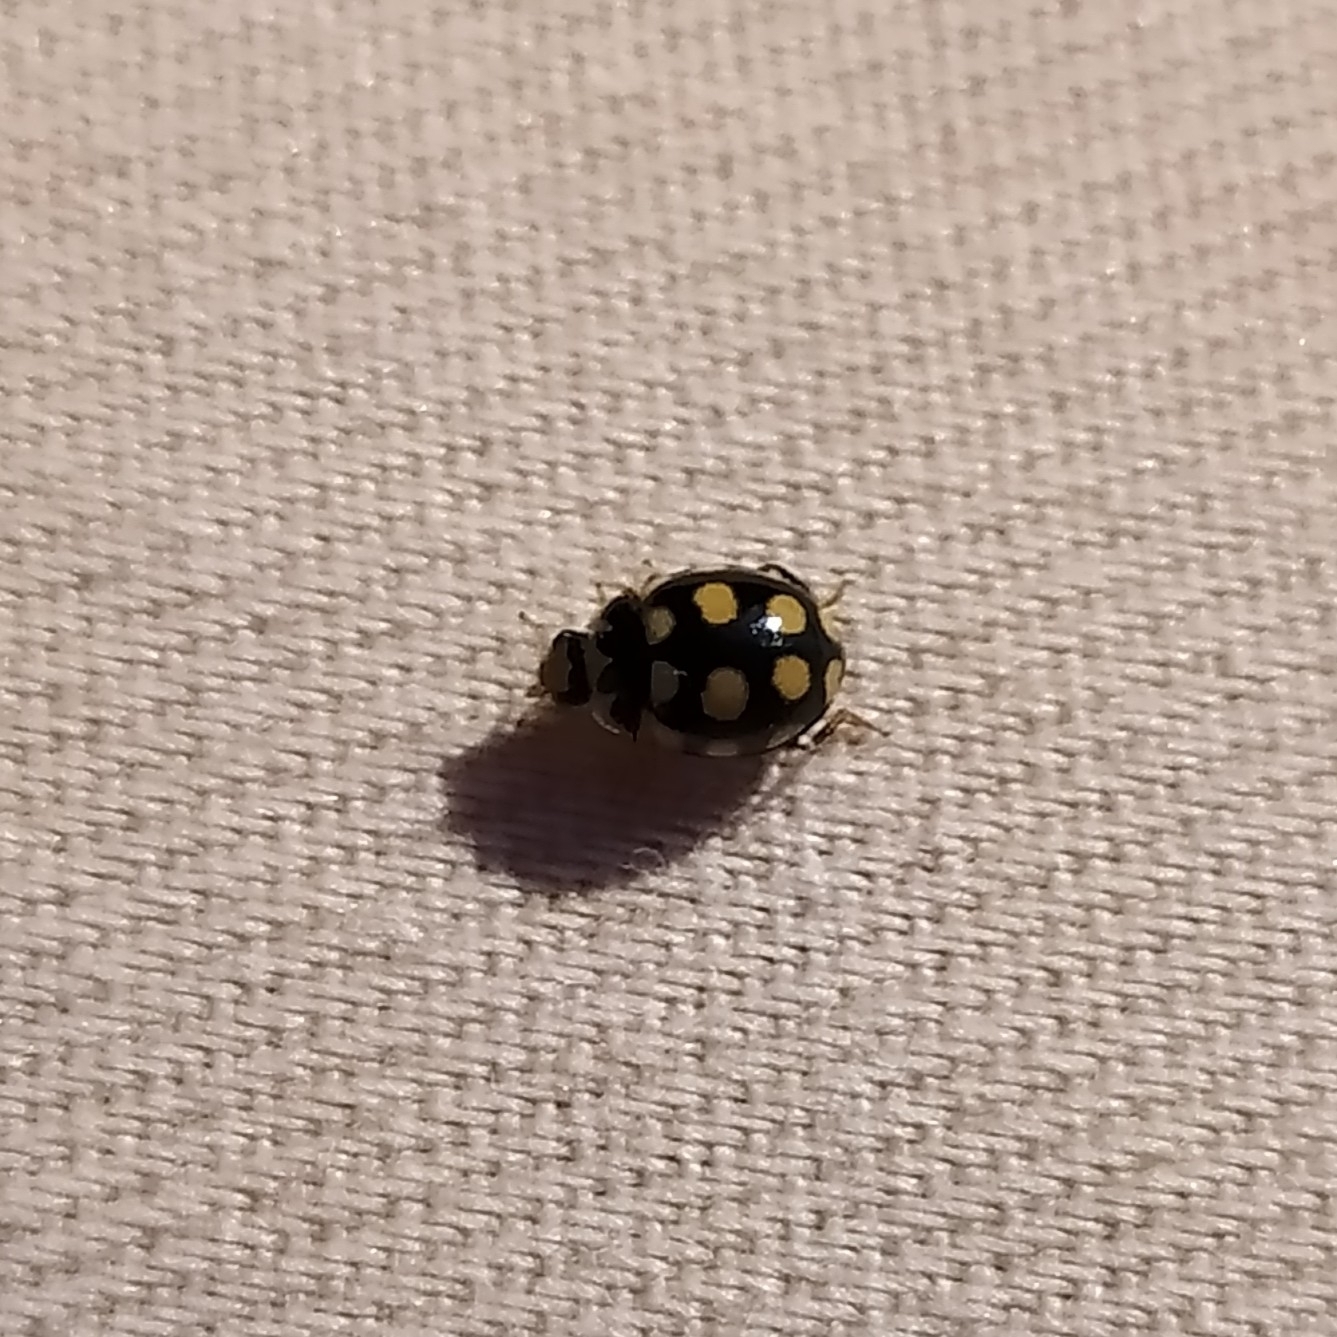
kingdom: Animalia
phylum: Arthropoda
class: Insecta
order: Coleoptera
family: Coccinellidae
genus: Coccinula
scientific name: Coccinula quatuordecimpustulata
